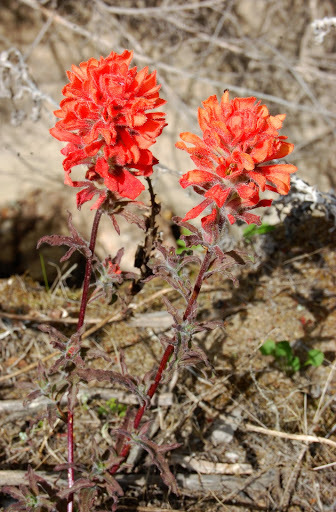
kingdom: Plantae
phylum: Tracheophyta
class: Magnoliopsida
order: Lamiales
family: Orobanchaceae
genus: Castilleja
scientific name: Castilleja affinis
